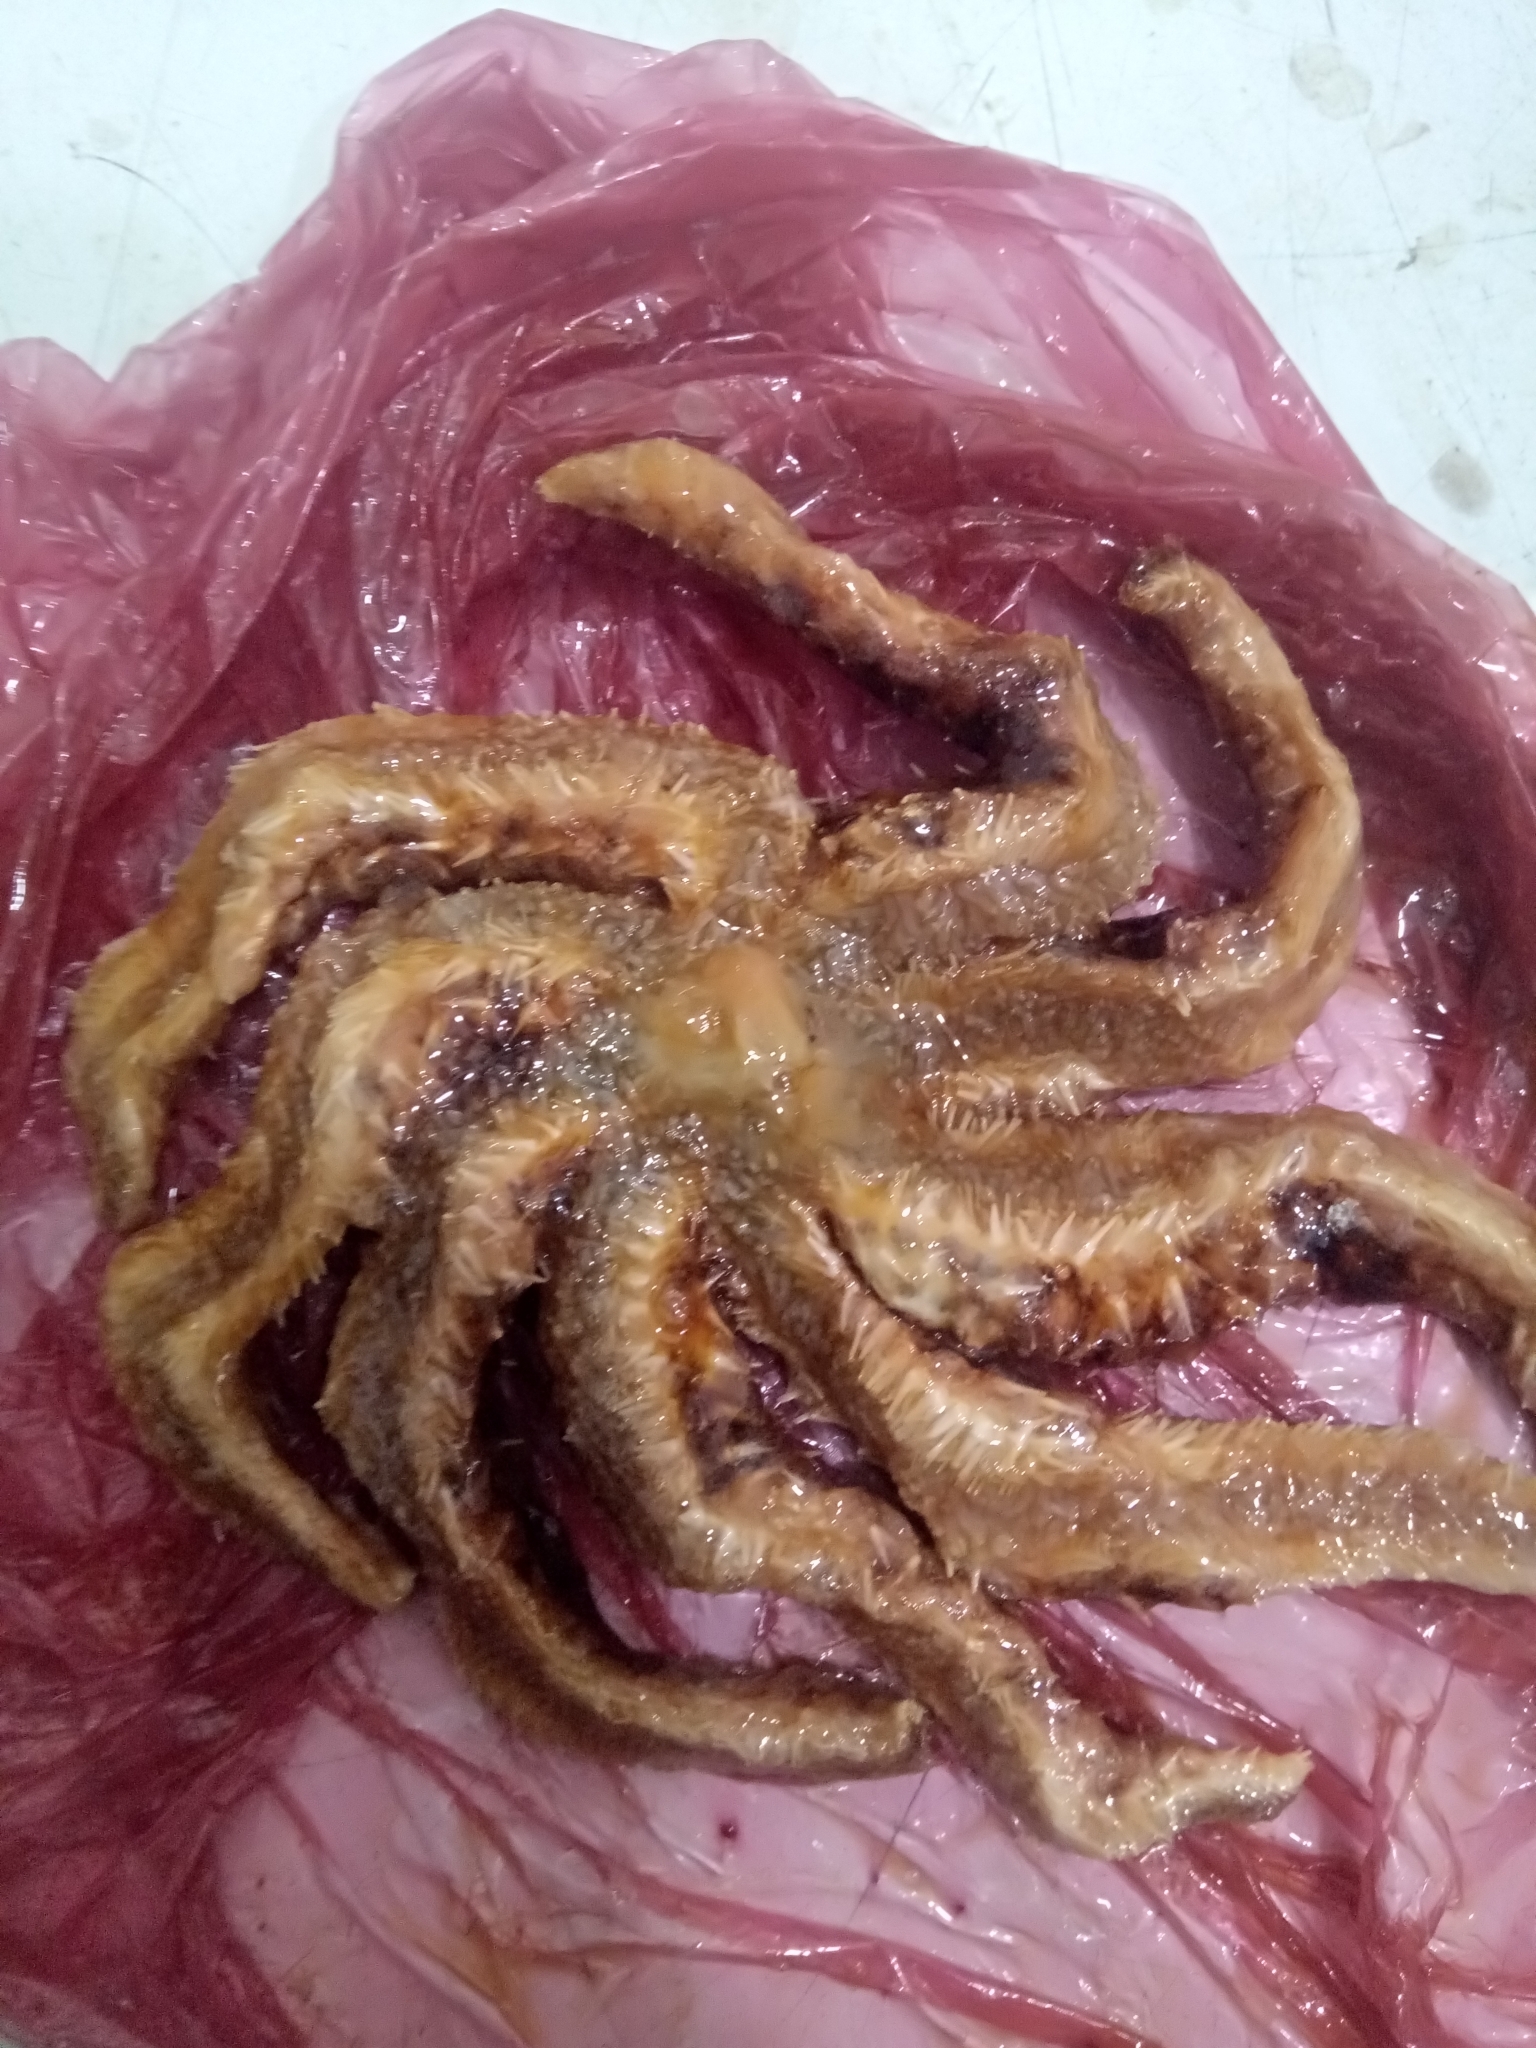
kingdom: Animalia
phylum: Echinodermata
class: Asteroidea
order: Forcipulatida
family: Asteriidae
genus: Coscinasterias
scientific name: Coscinasterias tenuispina
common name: Blue spiny starfish
